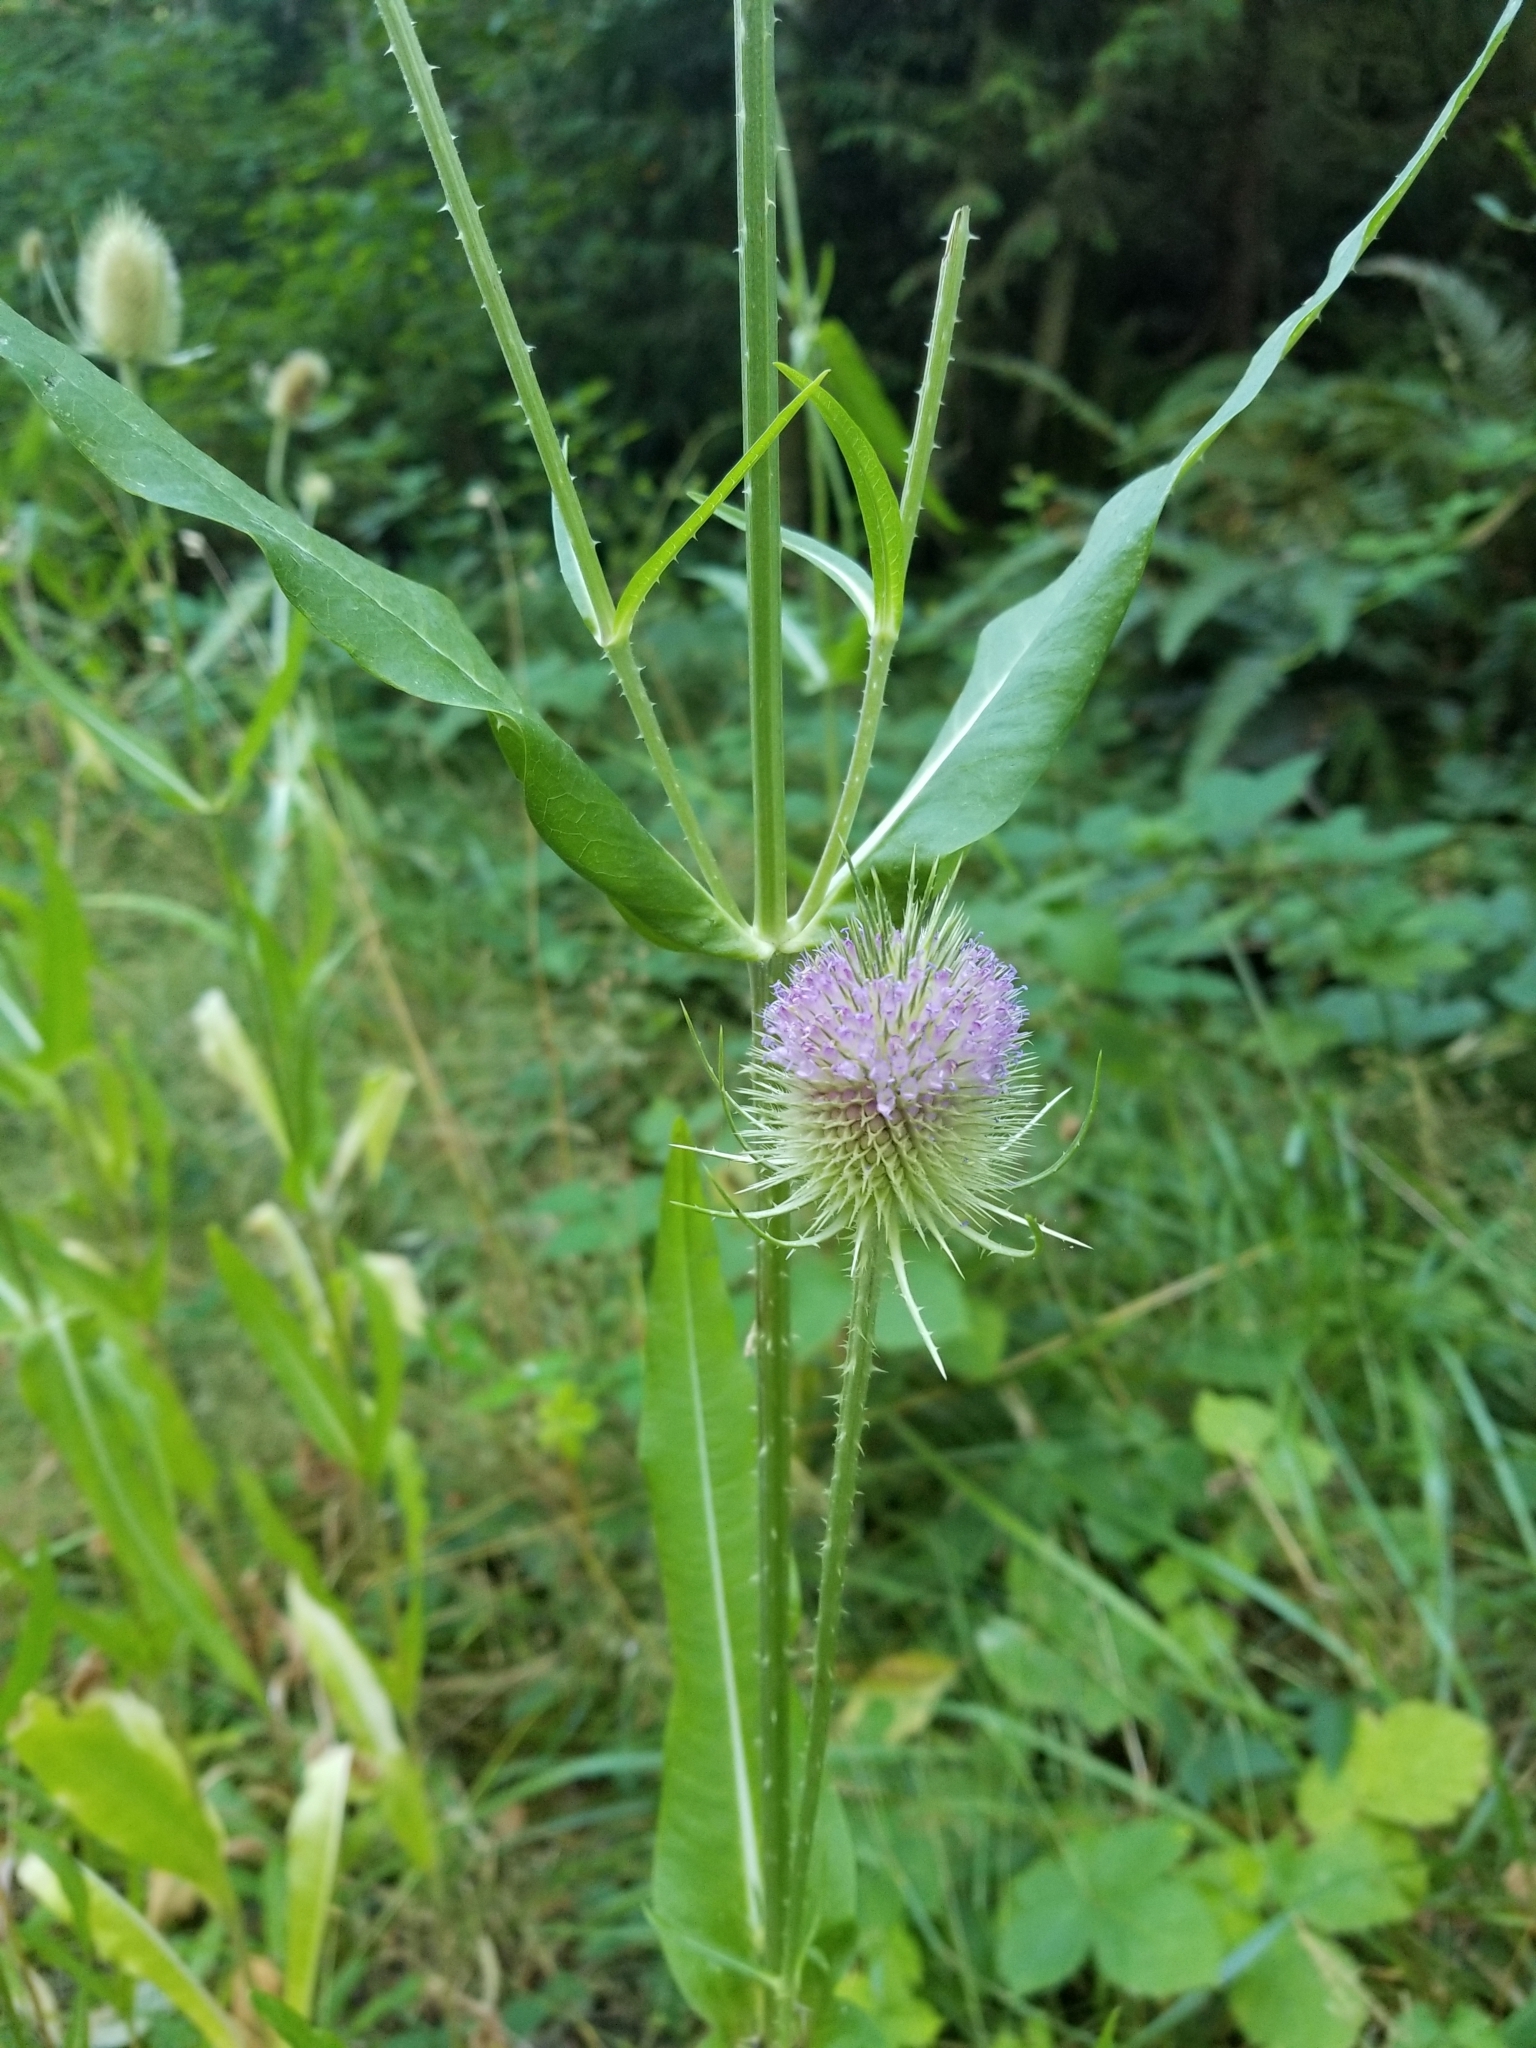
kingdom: Plantae
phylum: Tracheophyta
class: Magnoliopsida
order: Dipsacales
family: Caprifoliaceae
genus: Dipsacus
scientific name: Dipsacus fullonum
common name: Teasel
